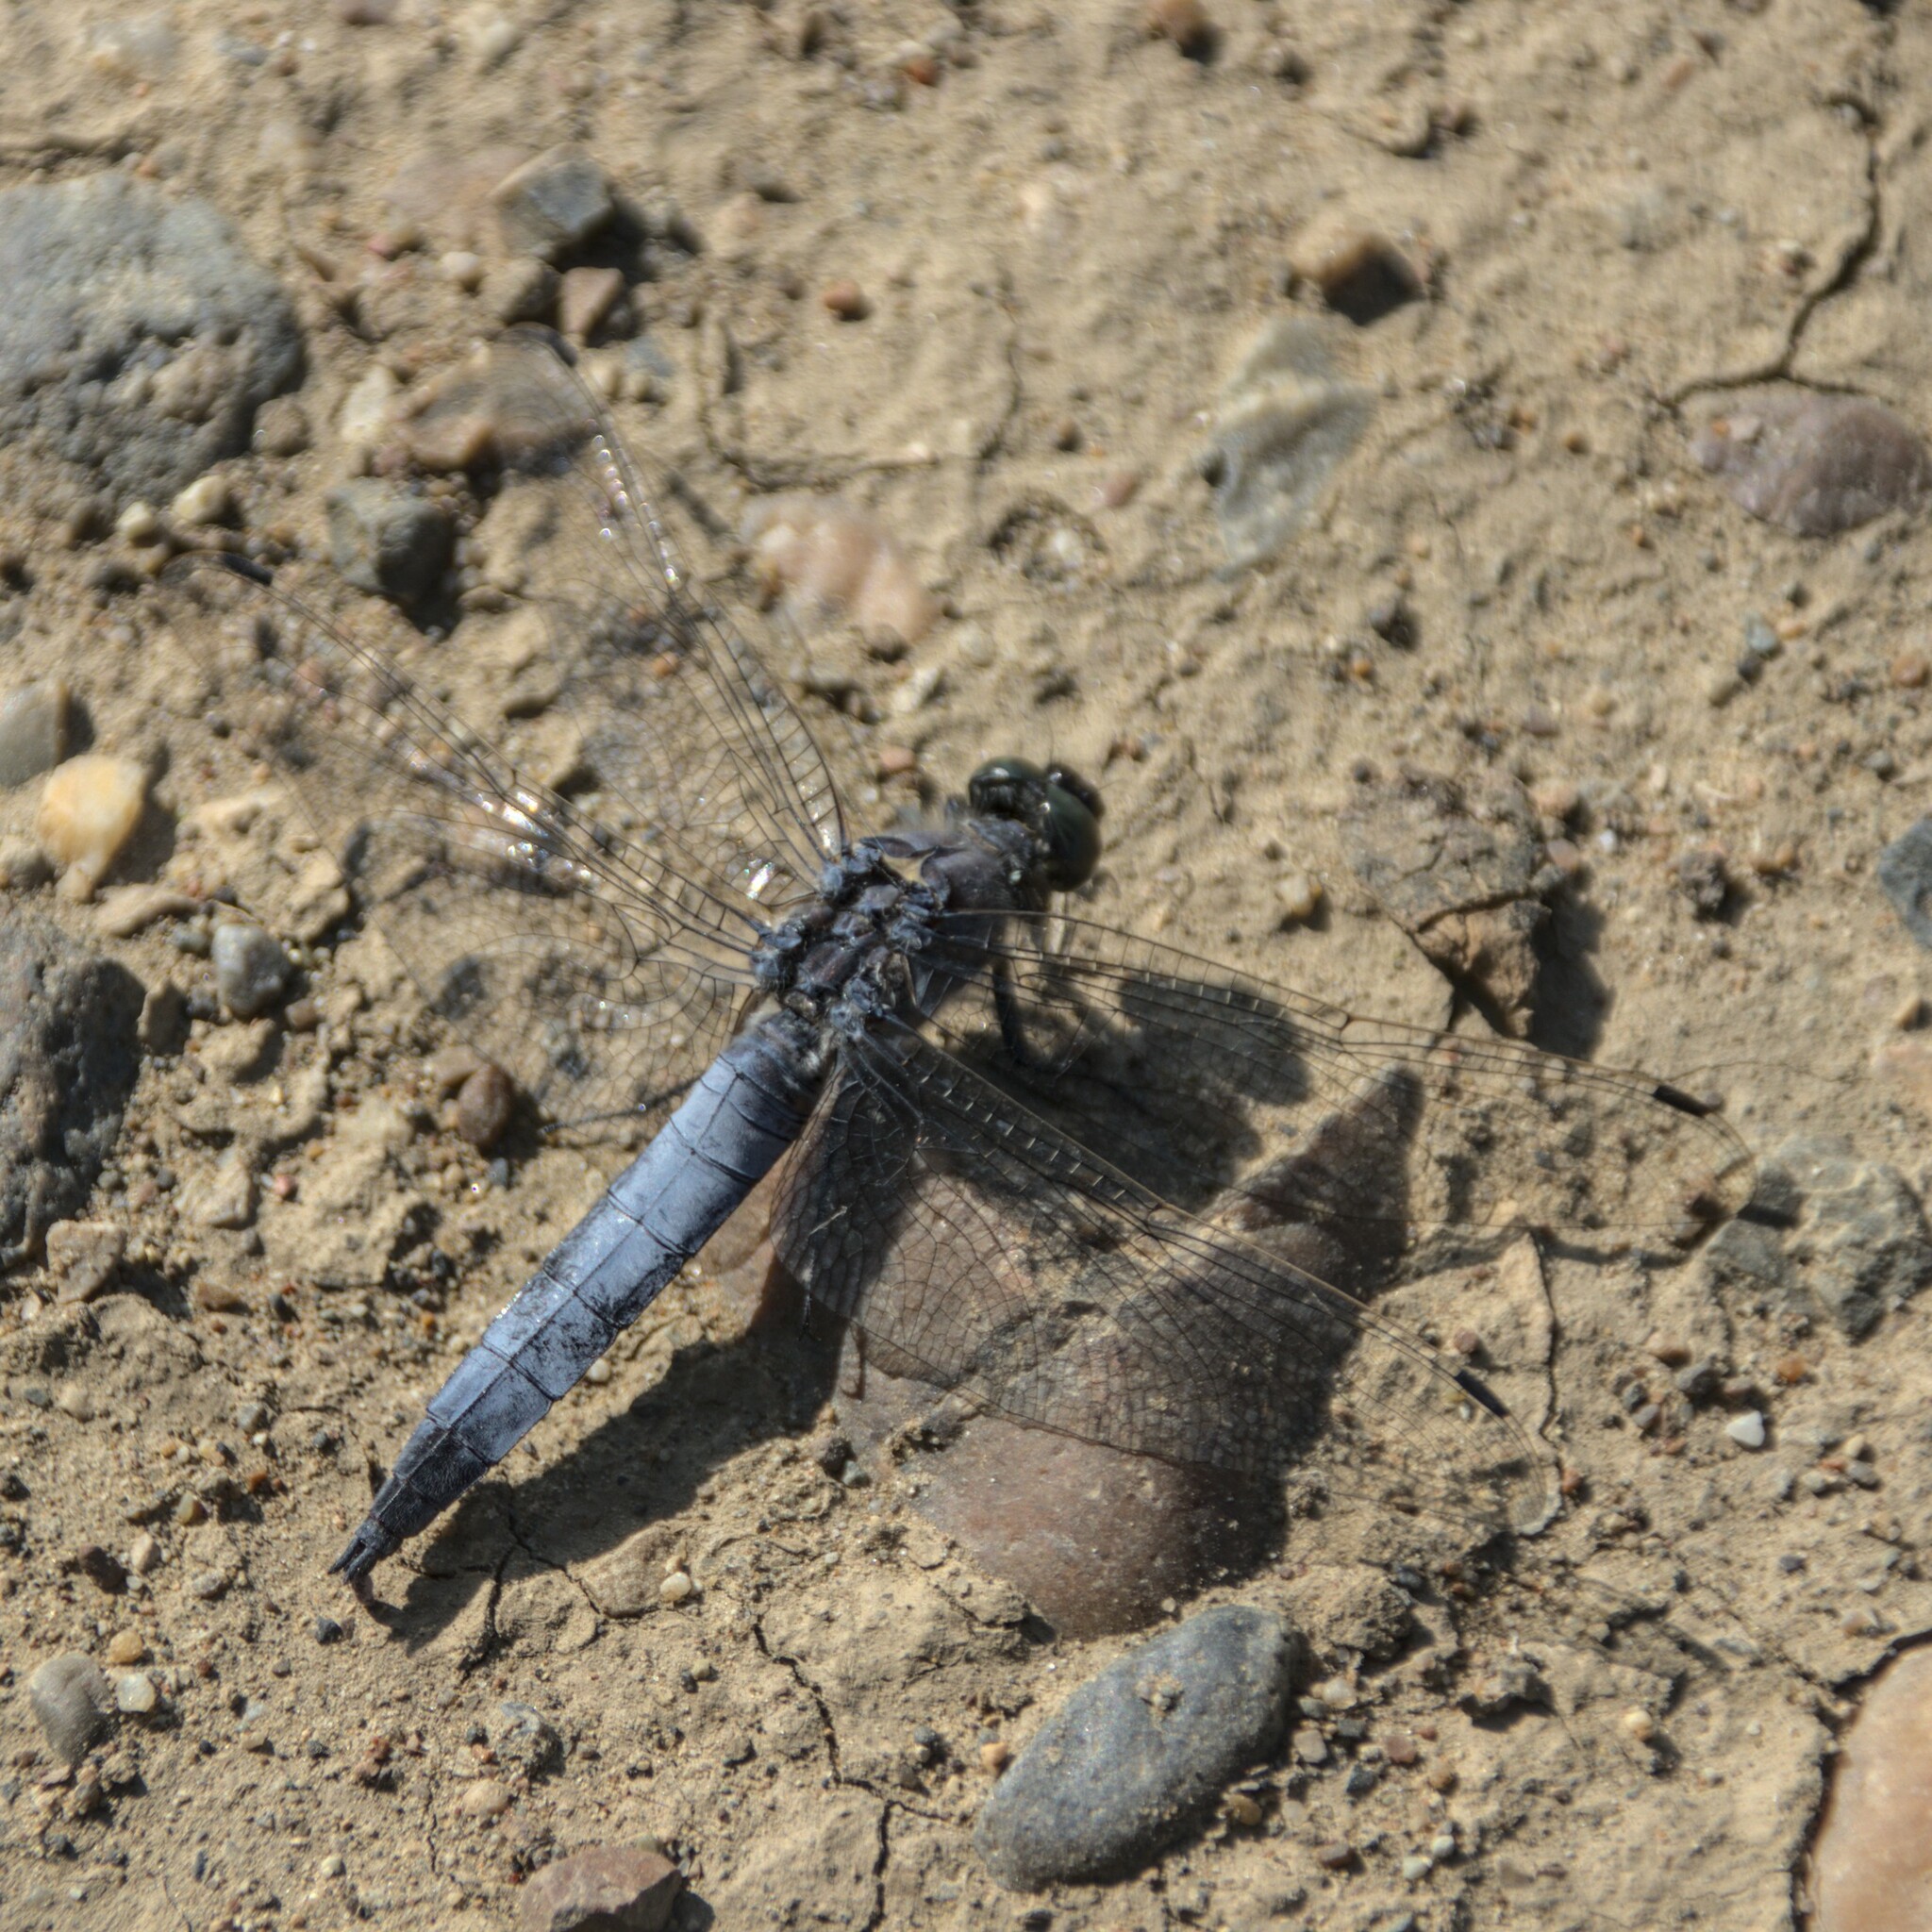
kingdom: Animalia
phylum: Arthropoda
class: Insecta
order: Odonata
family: Libellulidae
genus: Orthetrum
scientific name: Orthetrum cancellatum
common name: Black-tailed skimmer
